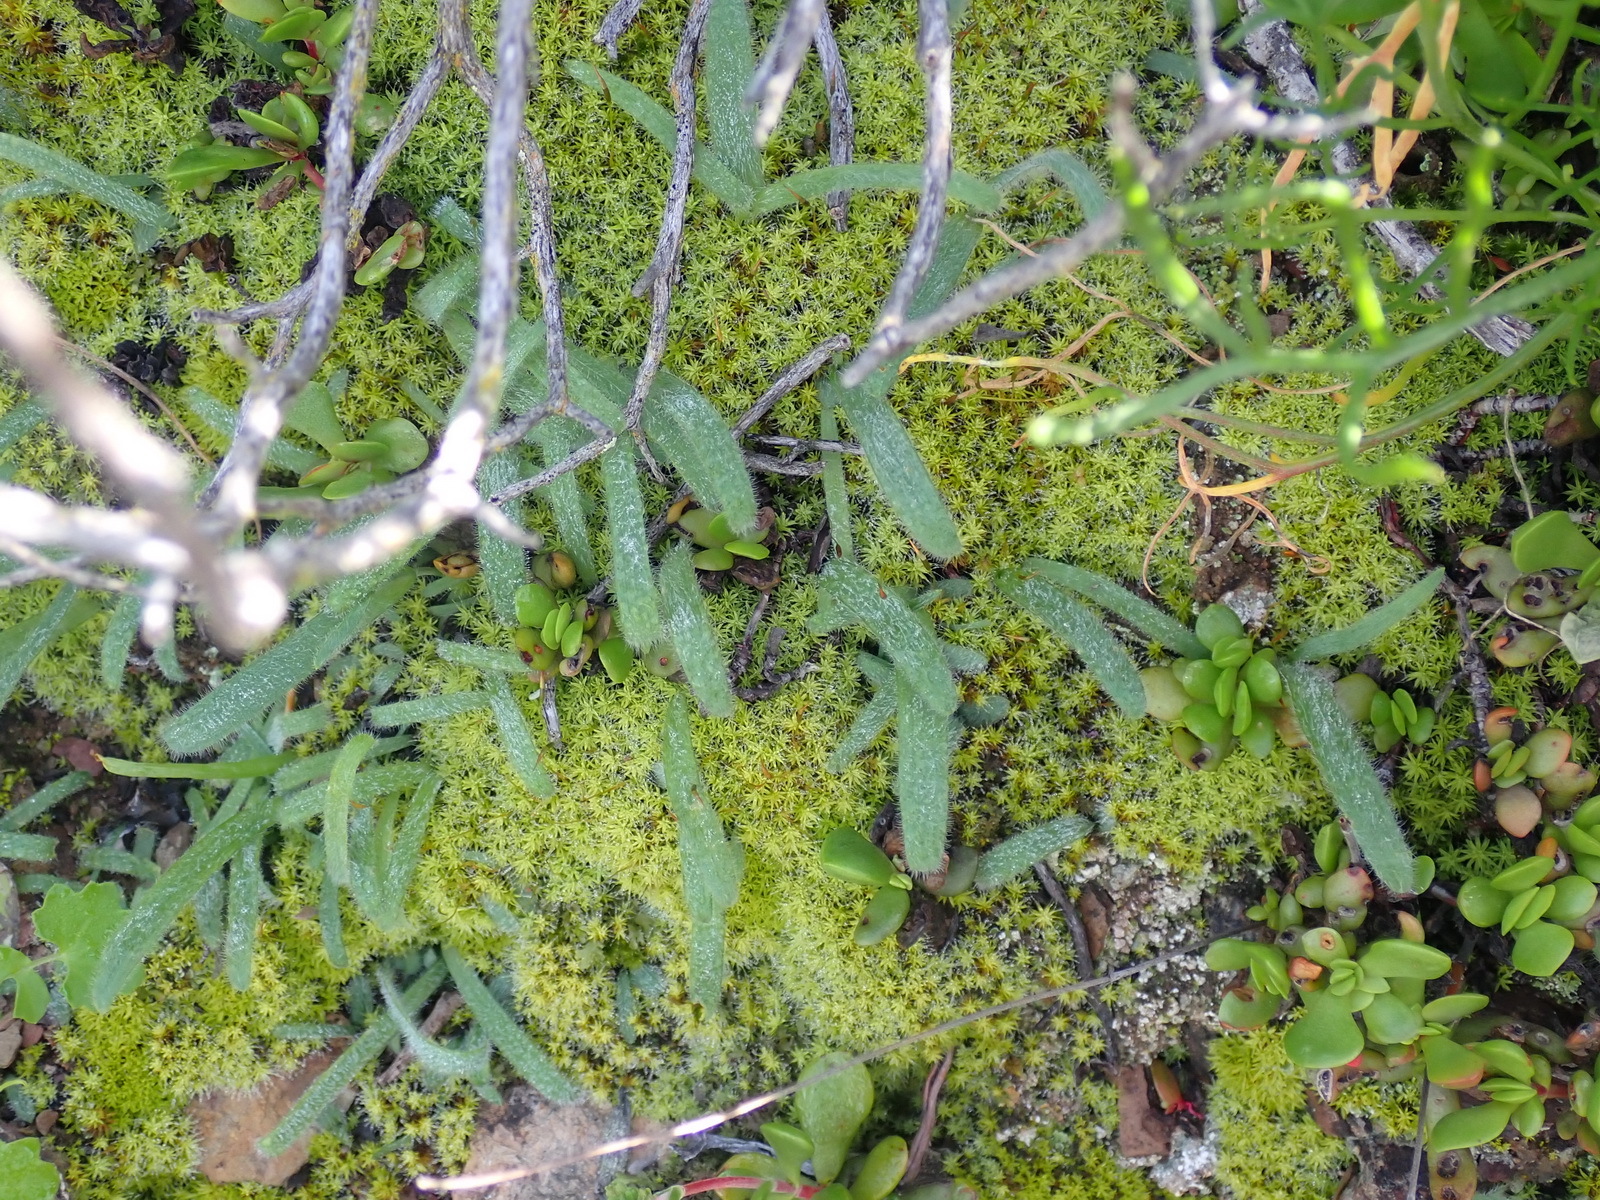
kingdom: Plantae
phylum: Tracheophyta
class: Liliopsida
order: Asparagales
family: Asparagaceae
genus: Drimia
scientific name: Drimia haworthioides
